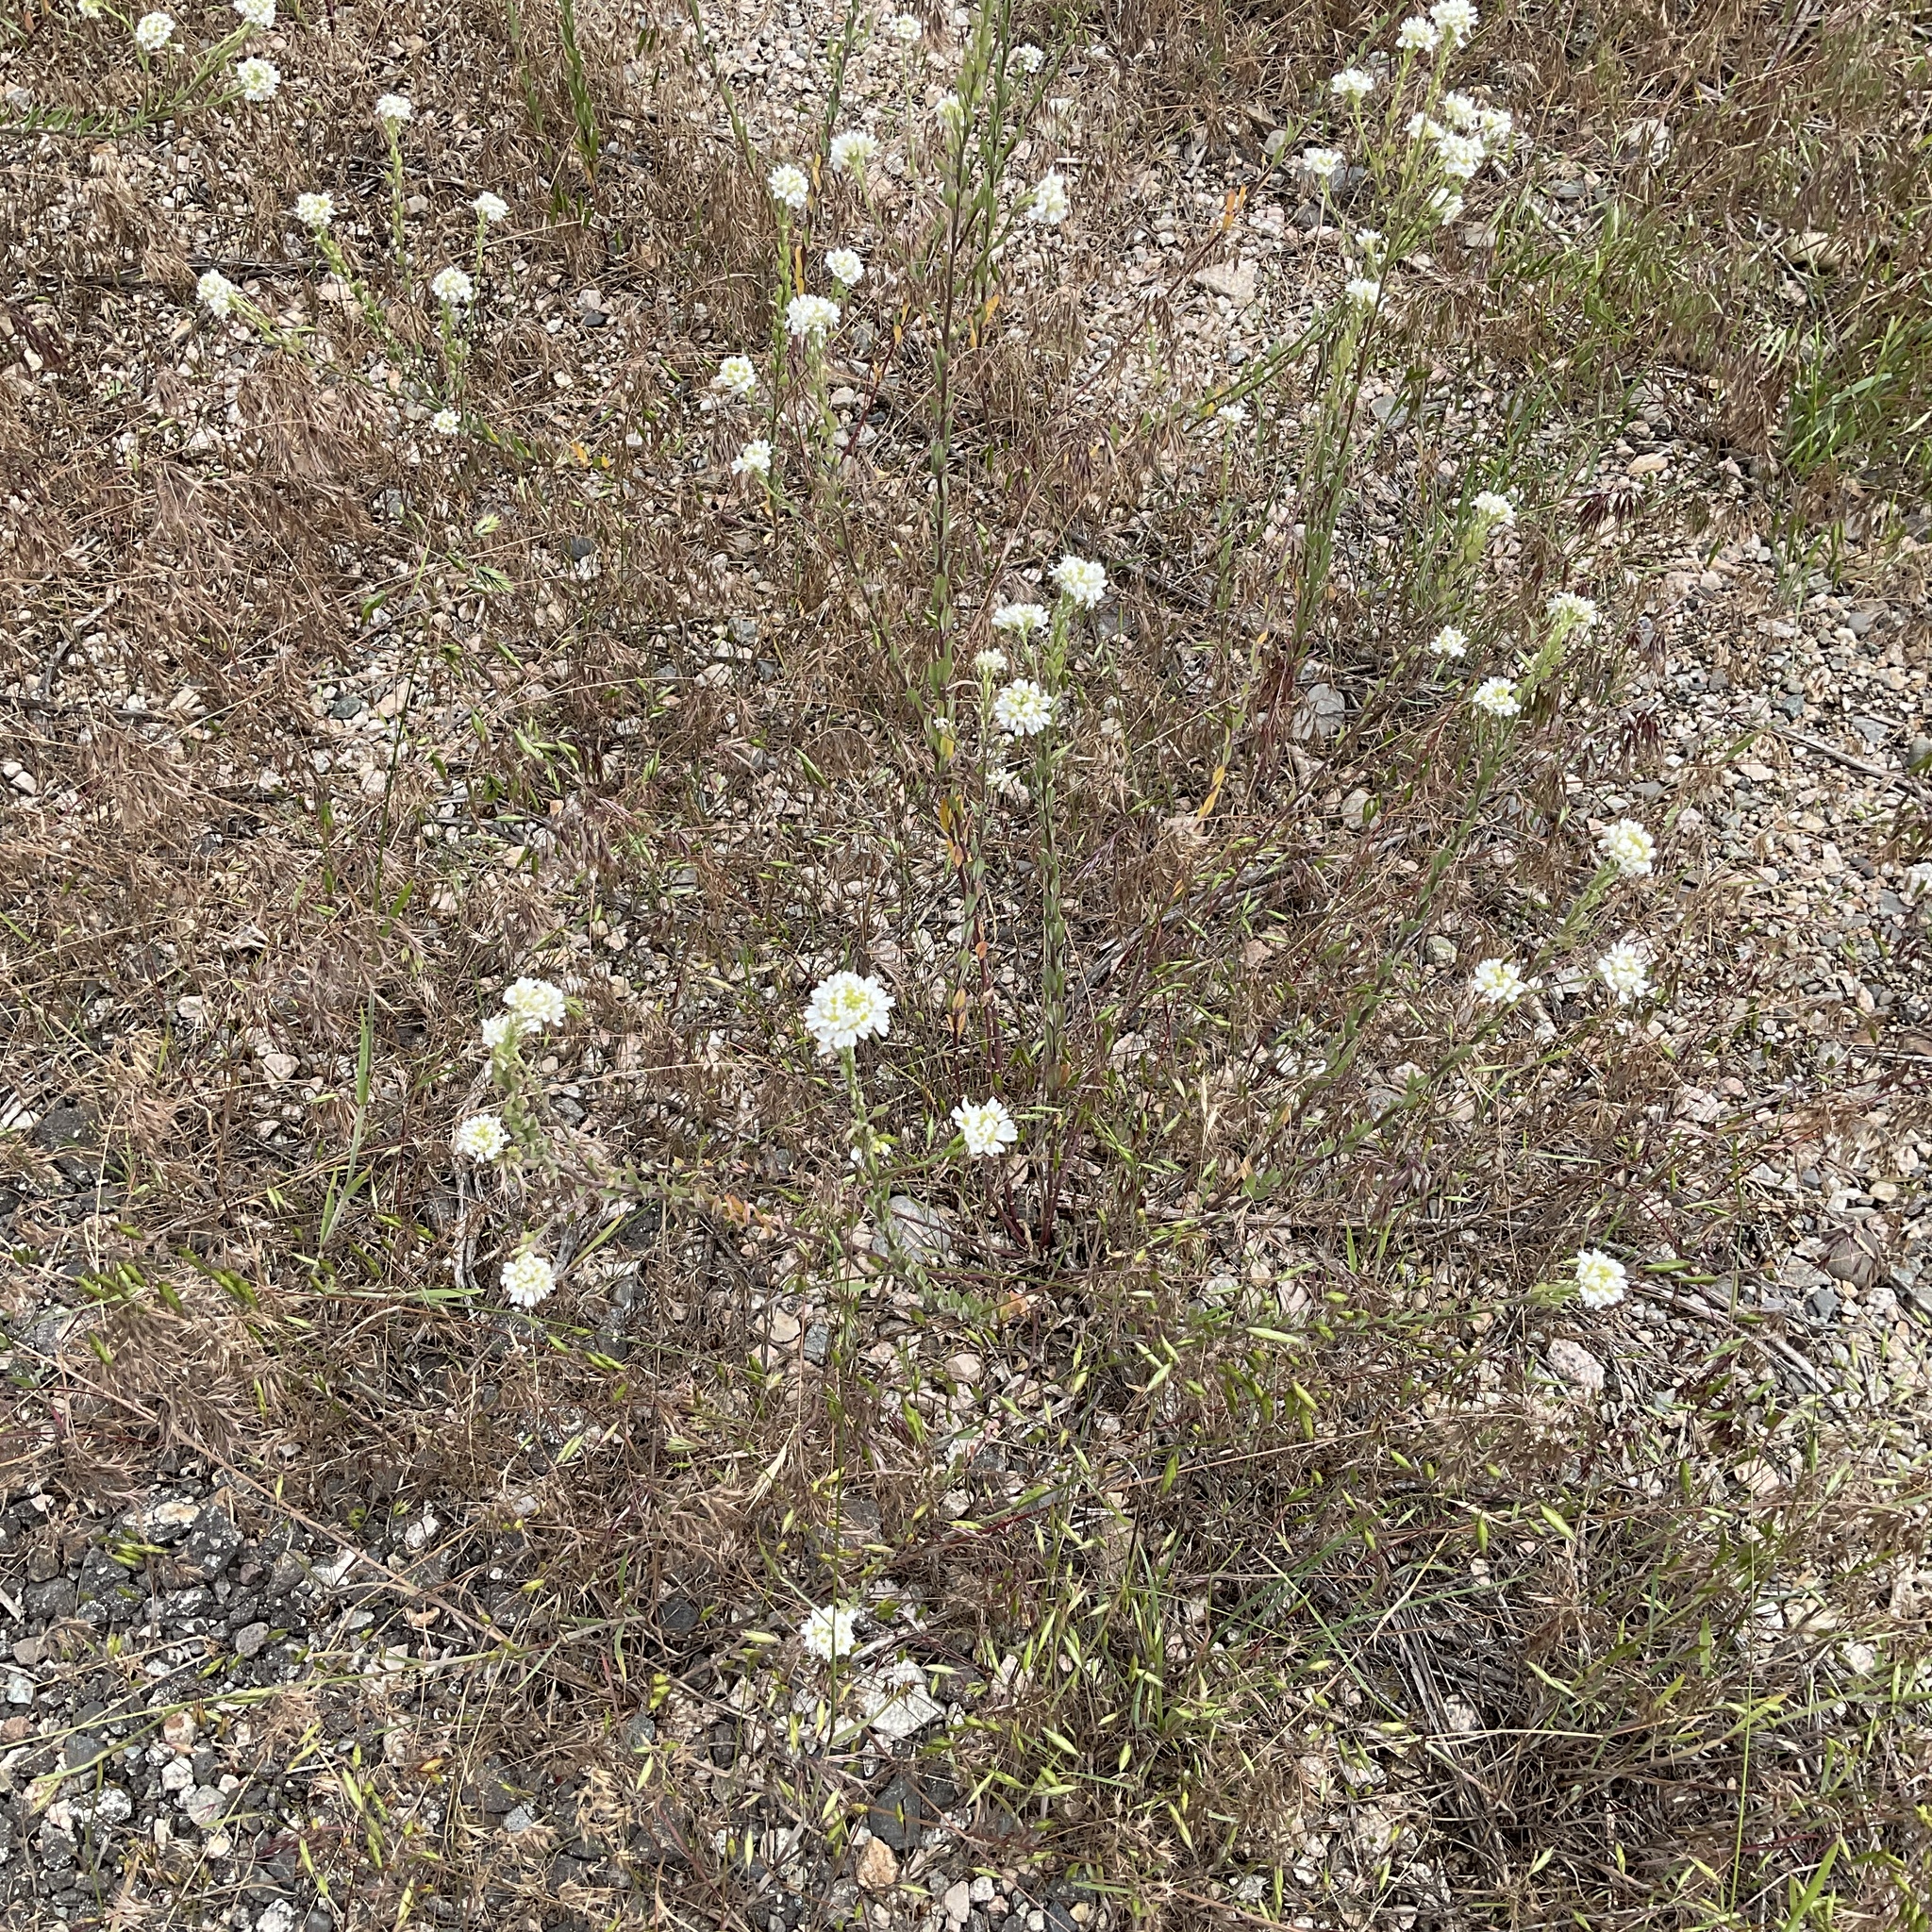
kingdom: Plantae
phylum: Tracheophyta
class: Magnoliopsida
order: Brassicales
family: Brassicaceae
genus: Berteroa
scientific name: Berteroa incana
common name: Hoary alison
